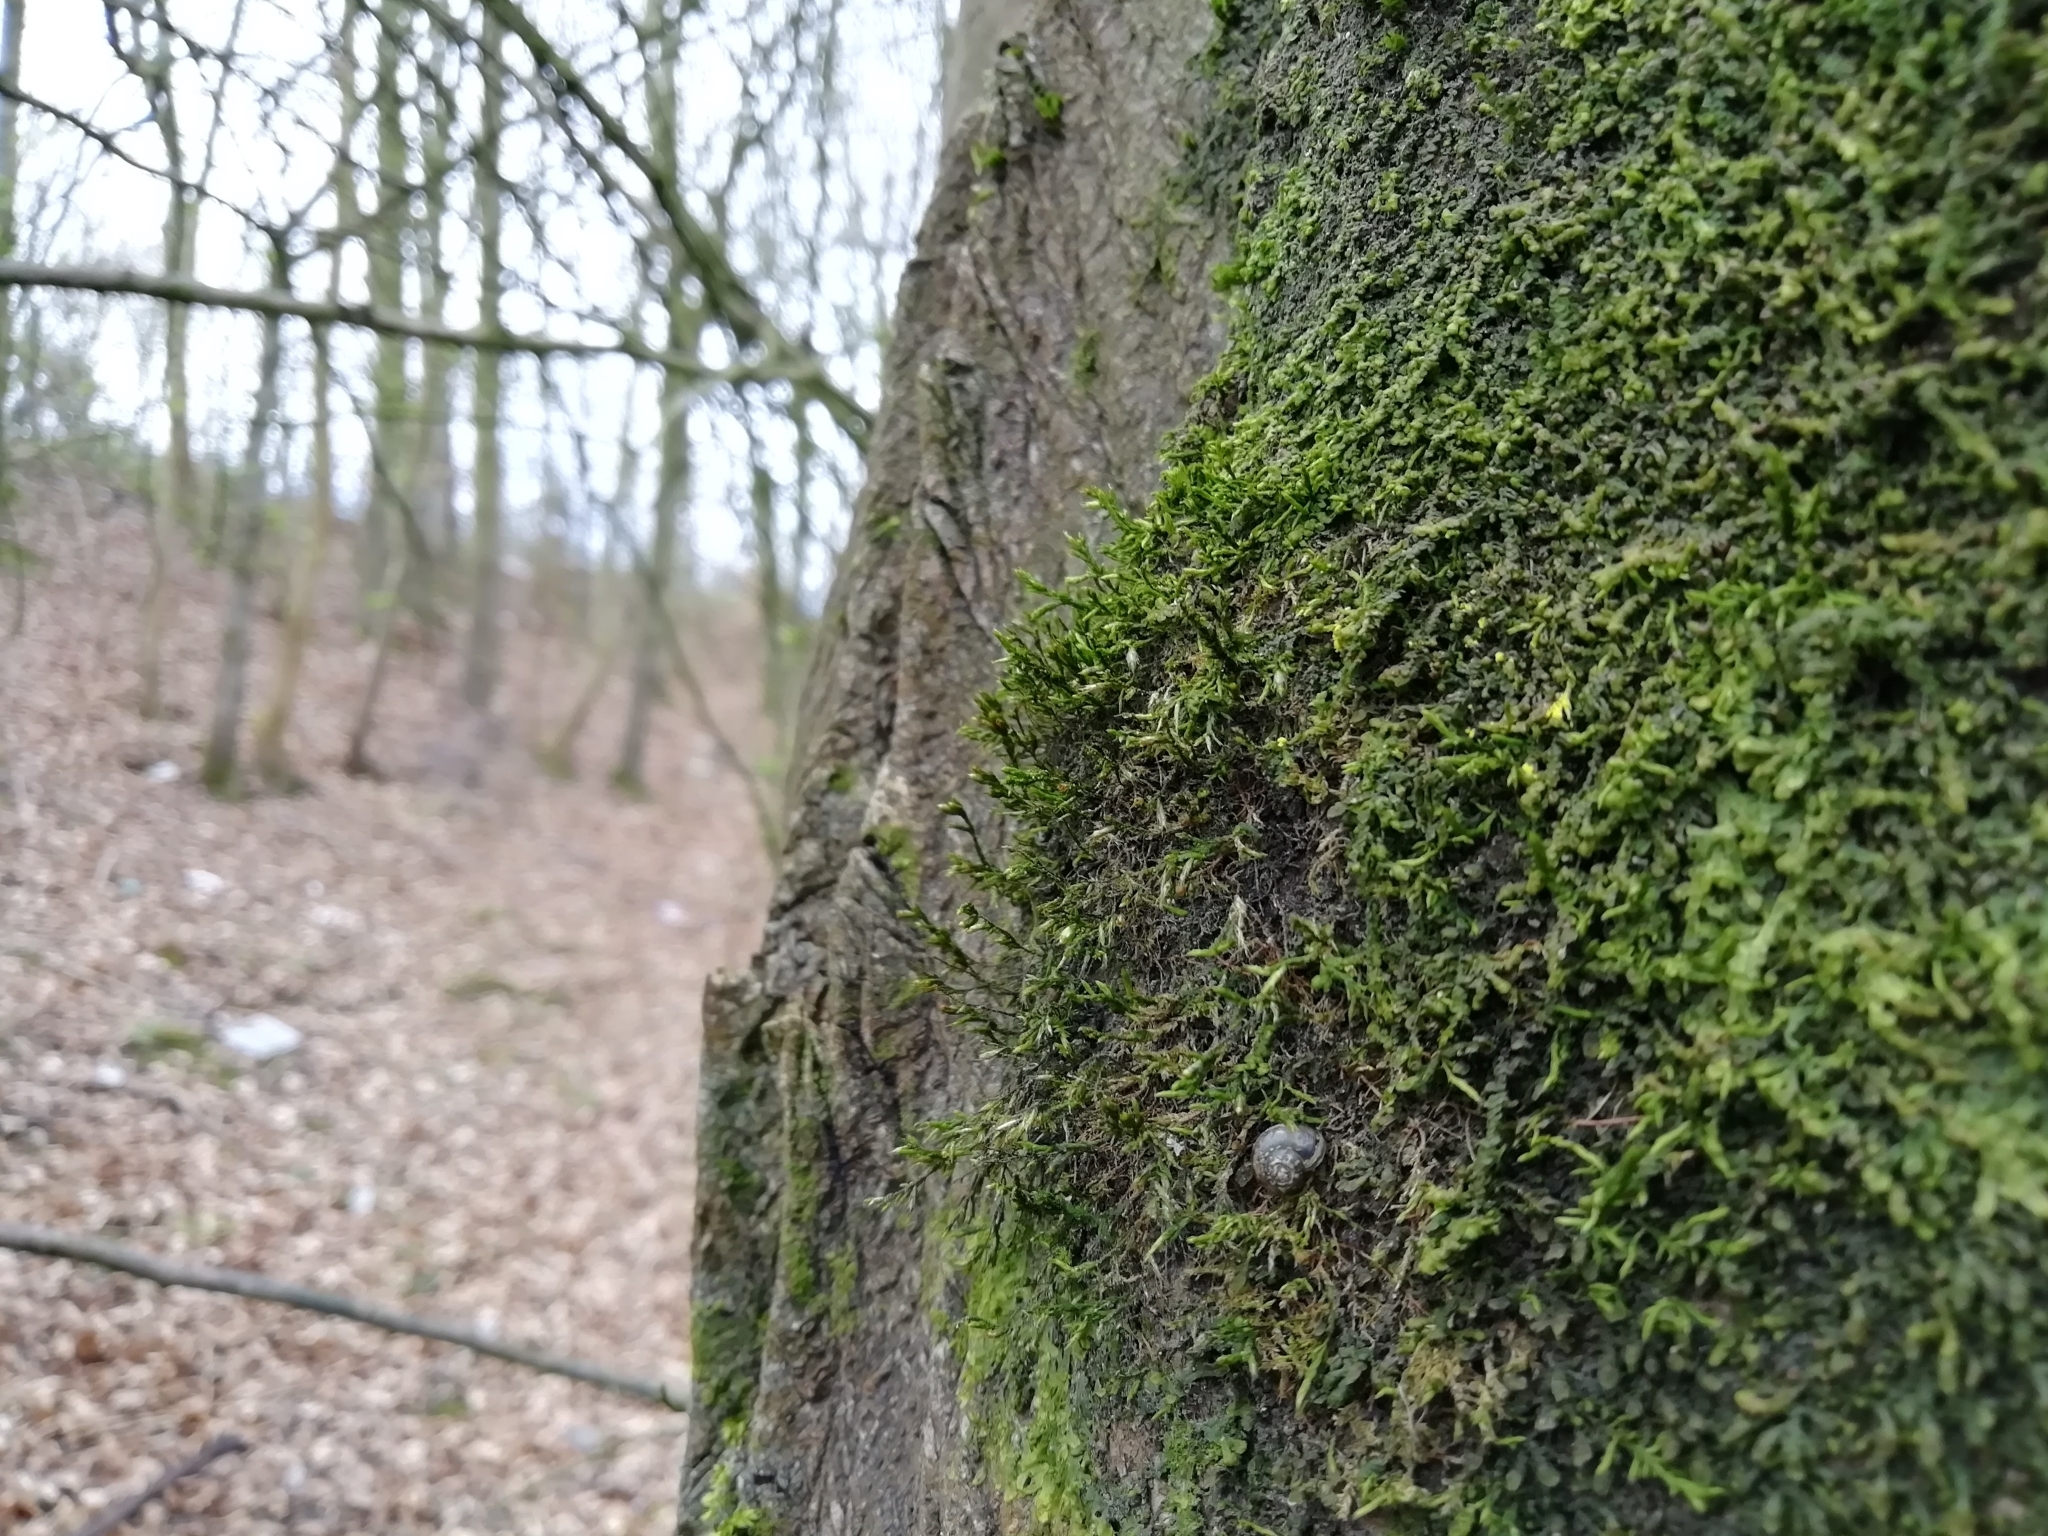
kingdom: Plantae
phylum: Bryophyta
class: Bryopsida
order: Hypnales
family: Cryphaeaceae
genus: Cryphaea
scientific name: Cryphaea heteromalla
